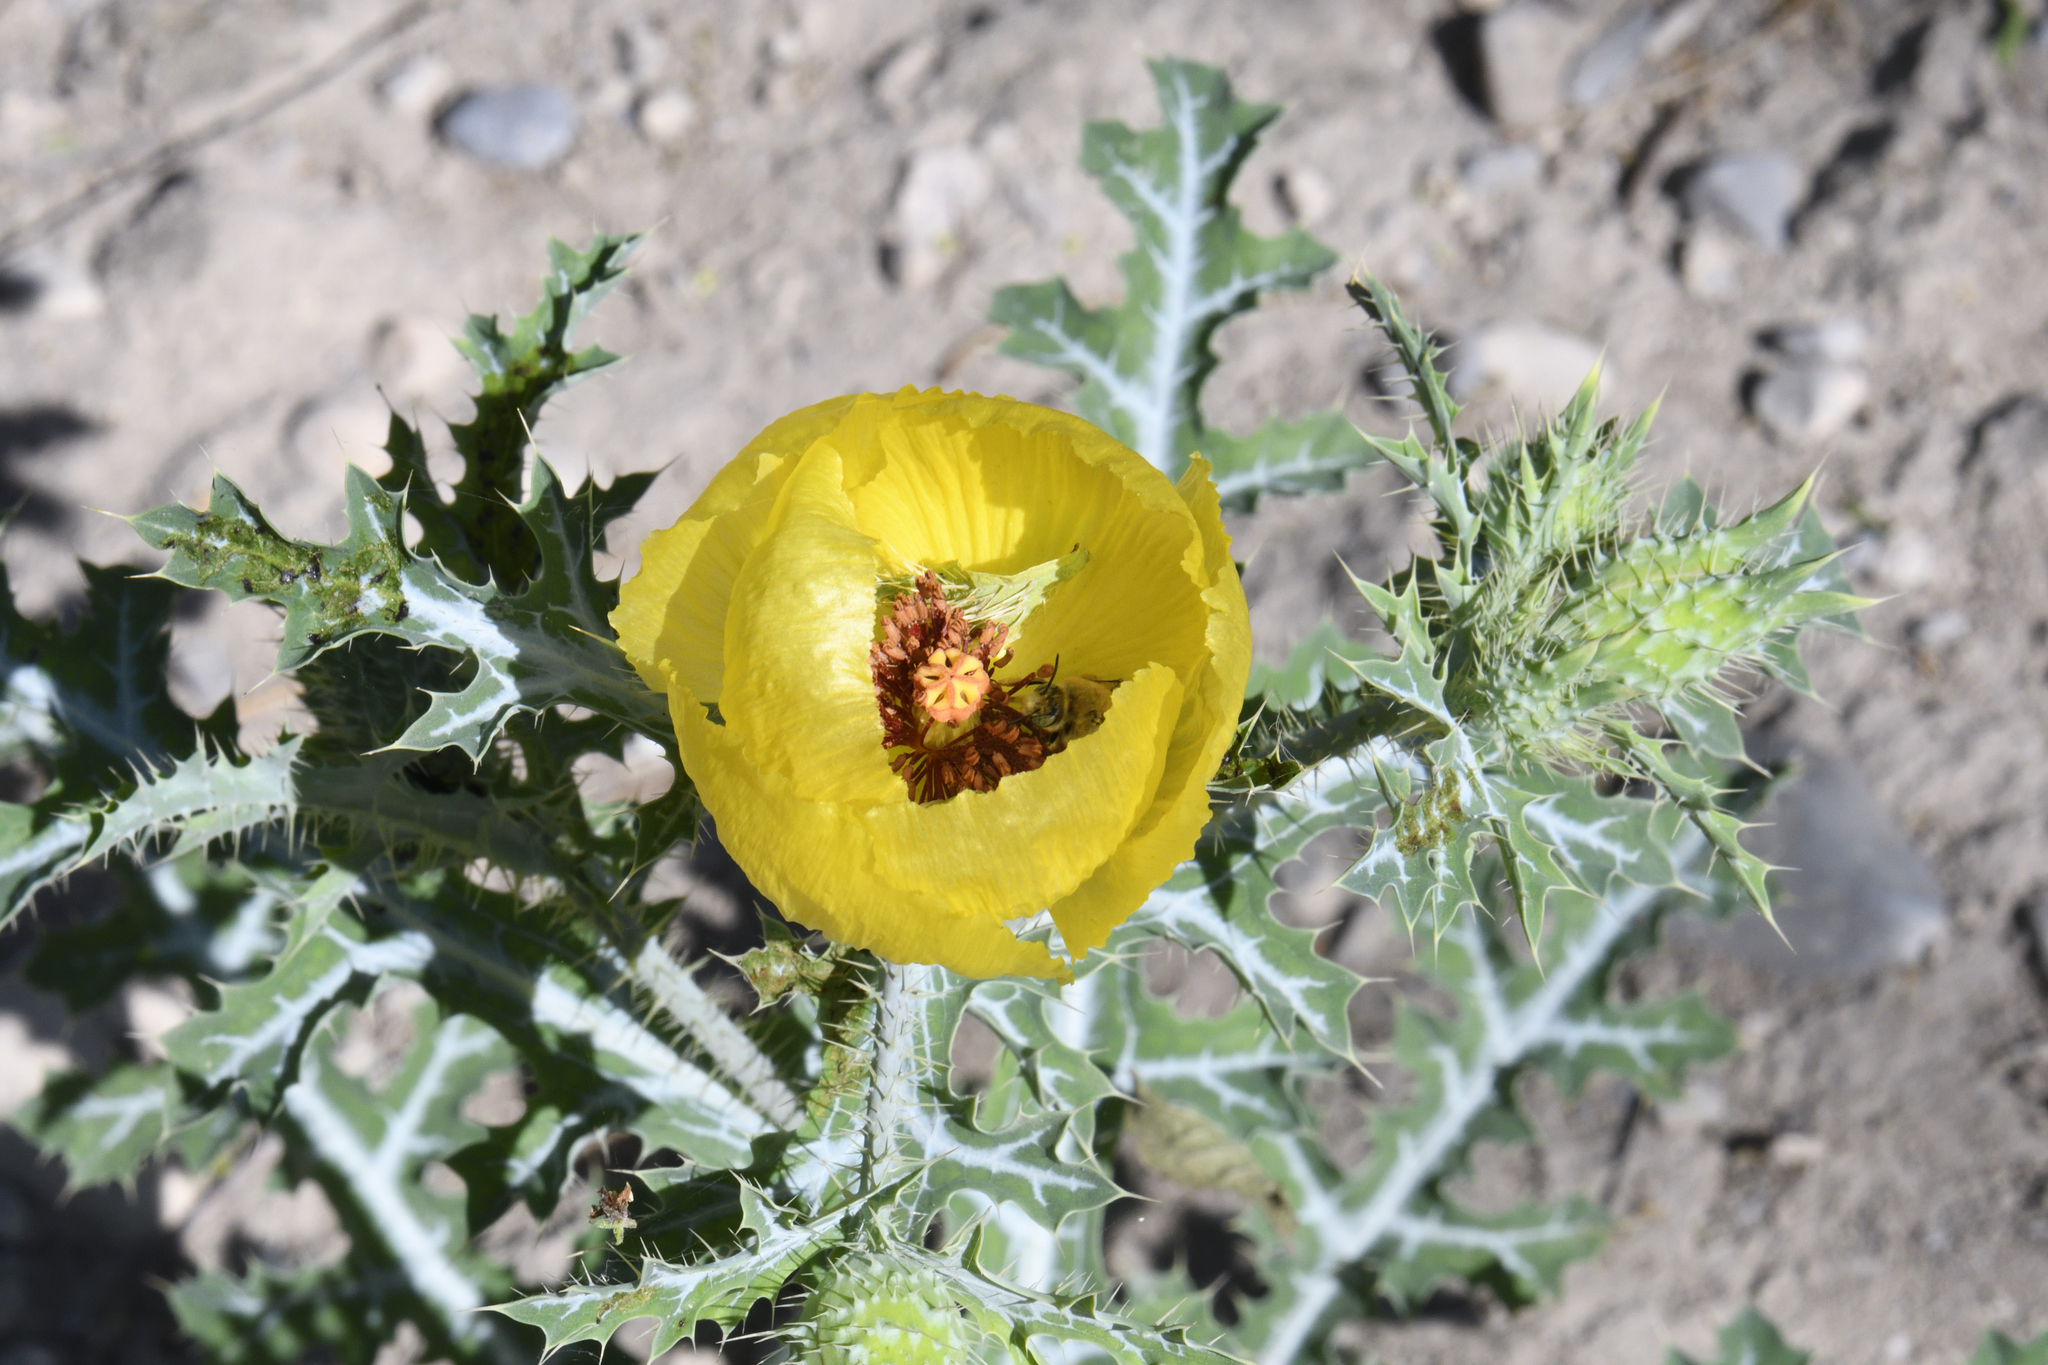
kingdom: Plantae
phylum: Tracheophyta
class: Magnoliopsida
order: Ranunculales
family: Papaveraceae
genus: Argemone
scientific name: Argemone aenea
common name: Golden prickly-poppy
